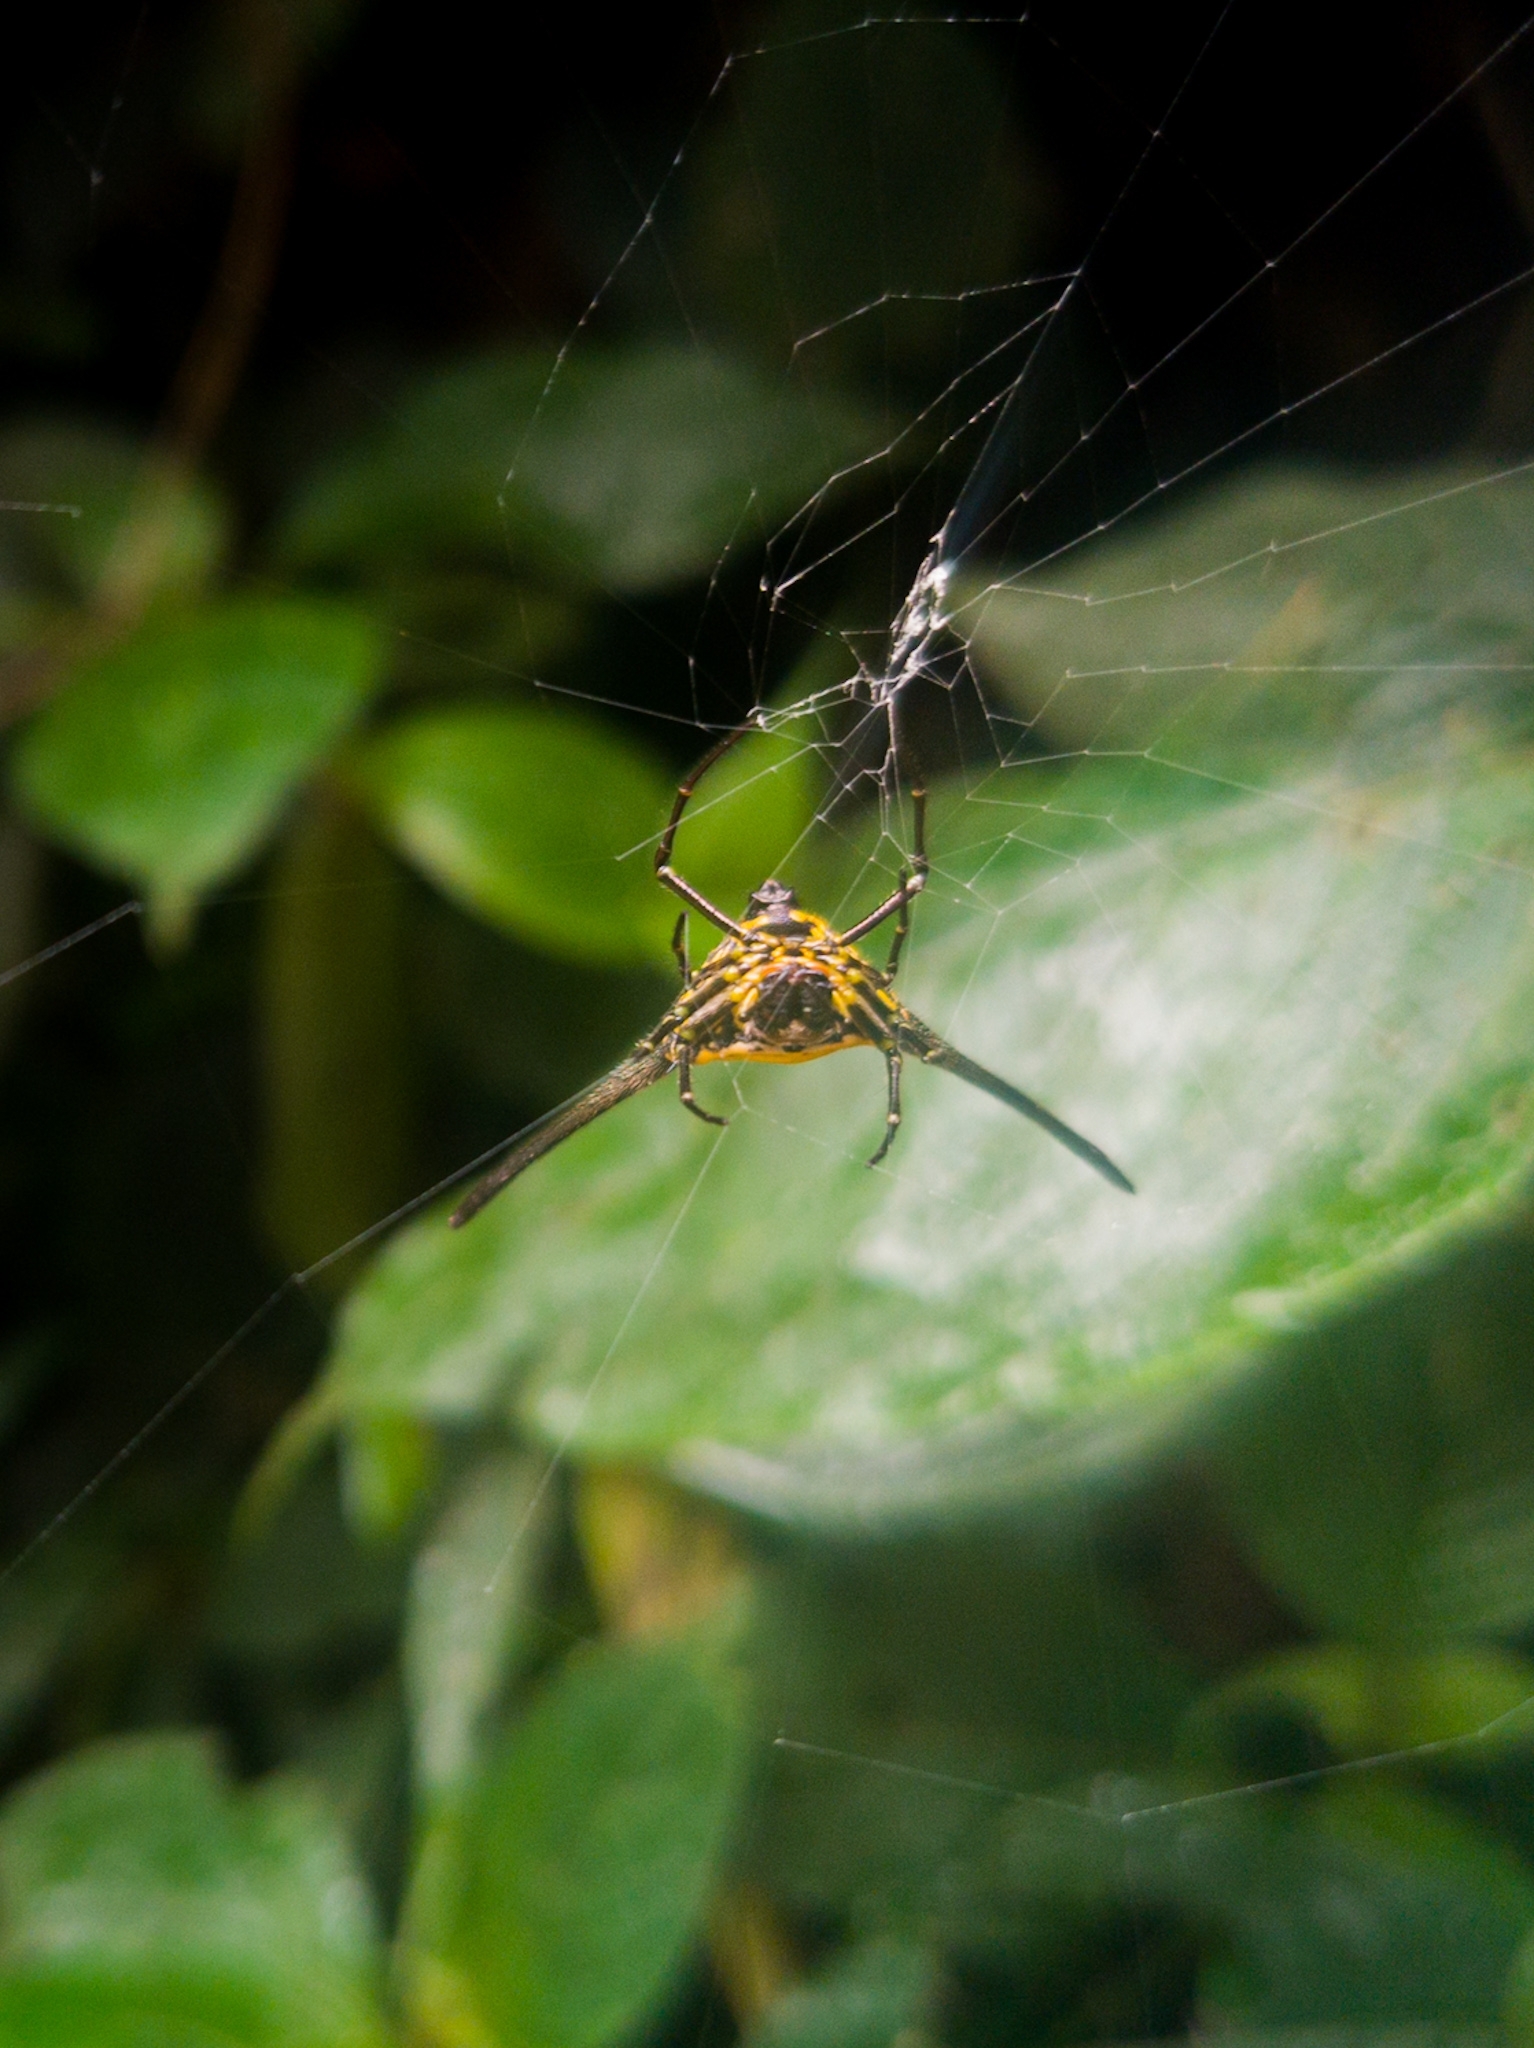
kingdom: Animalia
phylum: Arthropoda
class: Arachnida
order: Araneae
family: Araneidae
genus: Gasteracantha
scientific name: Gasteracantha dalyi
